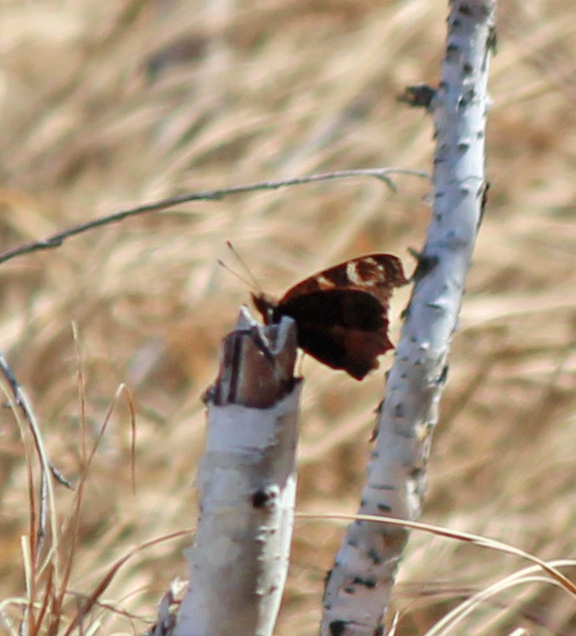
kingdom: Animalia
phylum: Arthropoda
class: Insecta
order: Lepidoptera
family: Nymphalidae
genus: Aglais
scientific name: Aglais io
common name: Peacock
